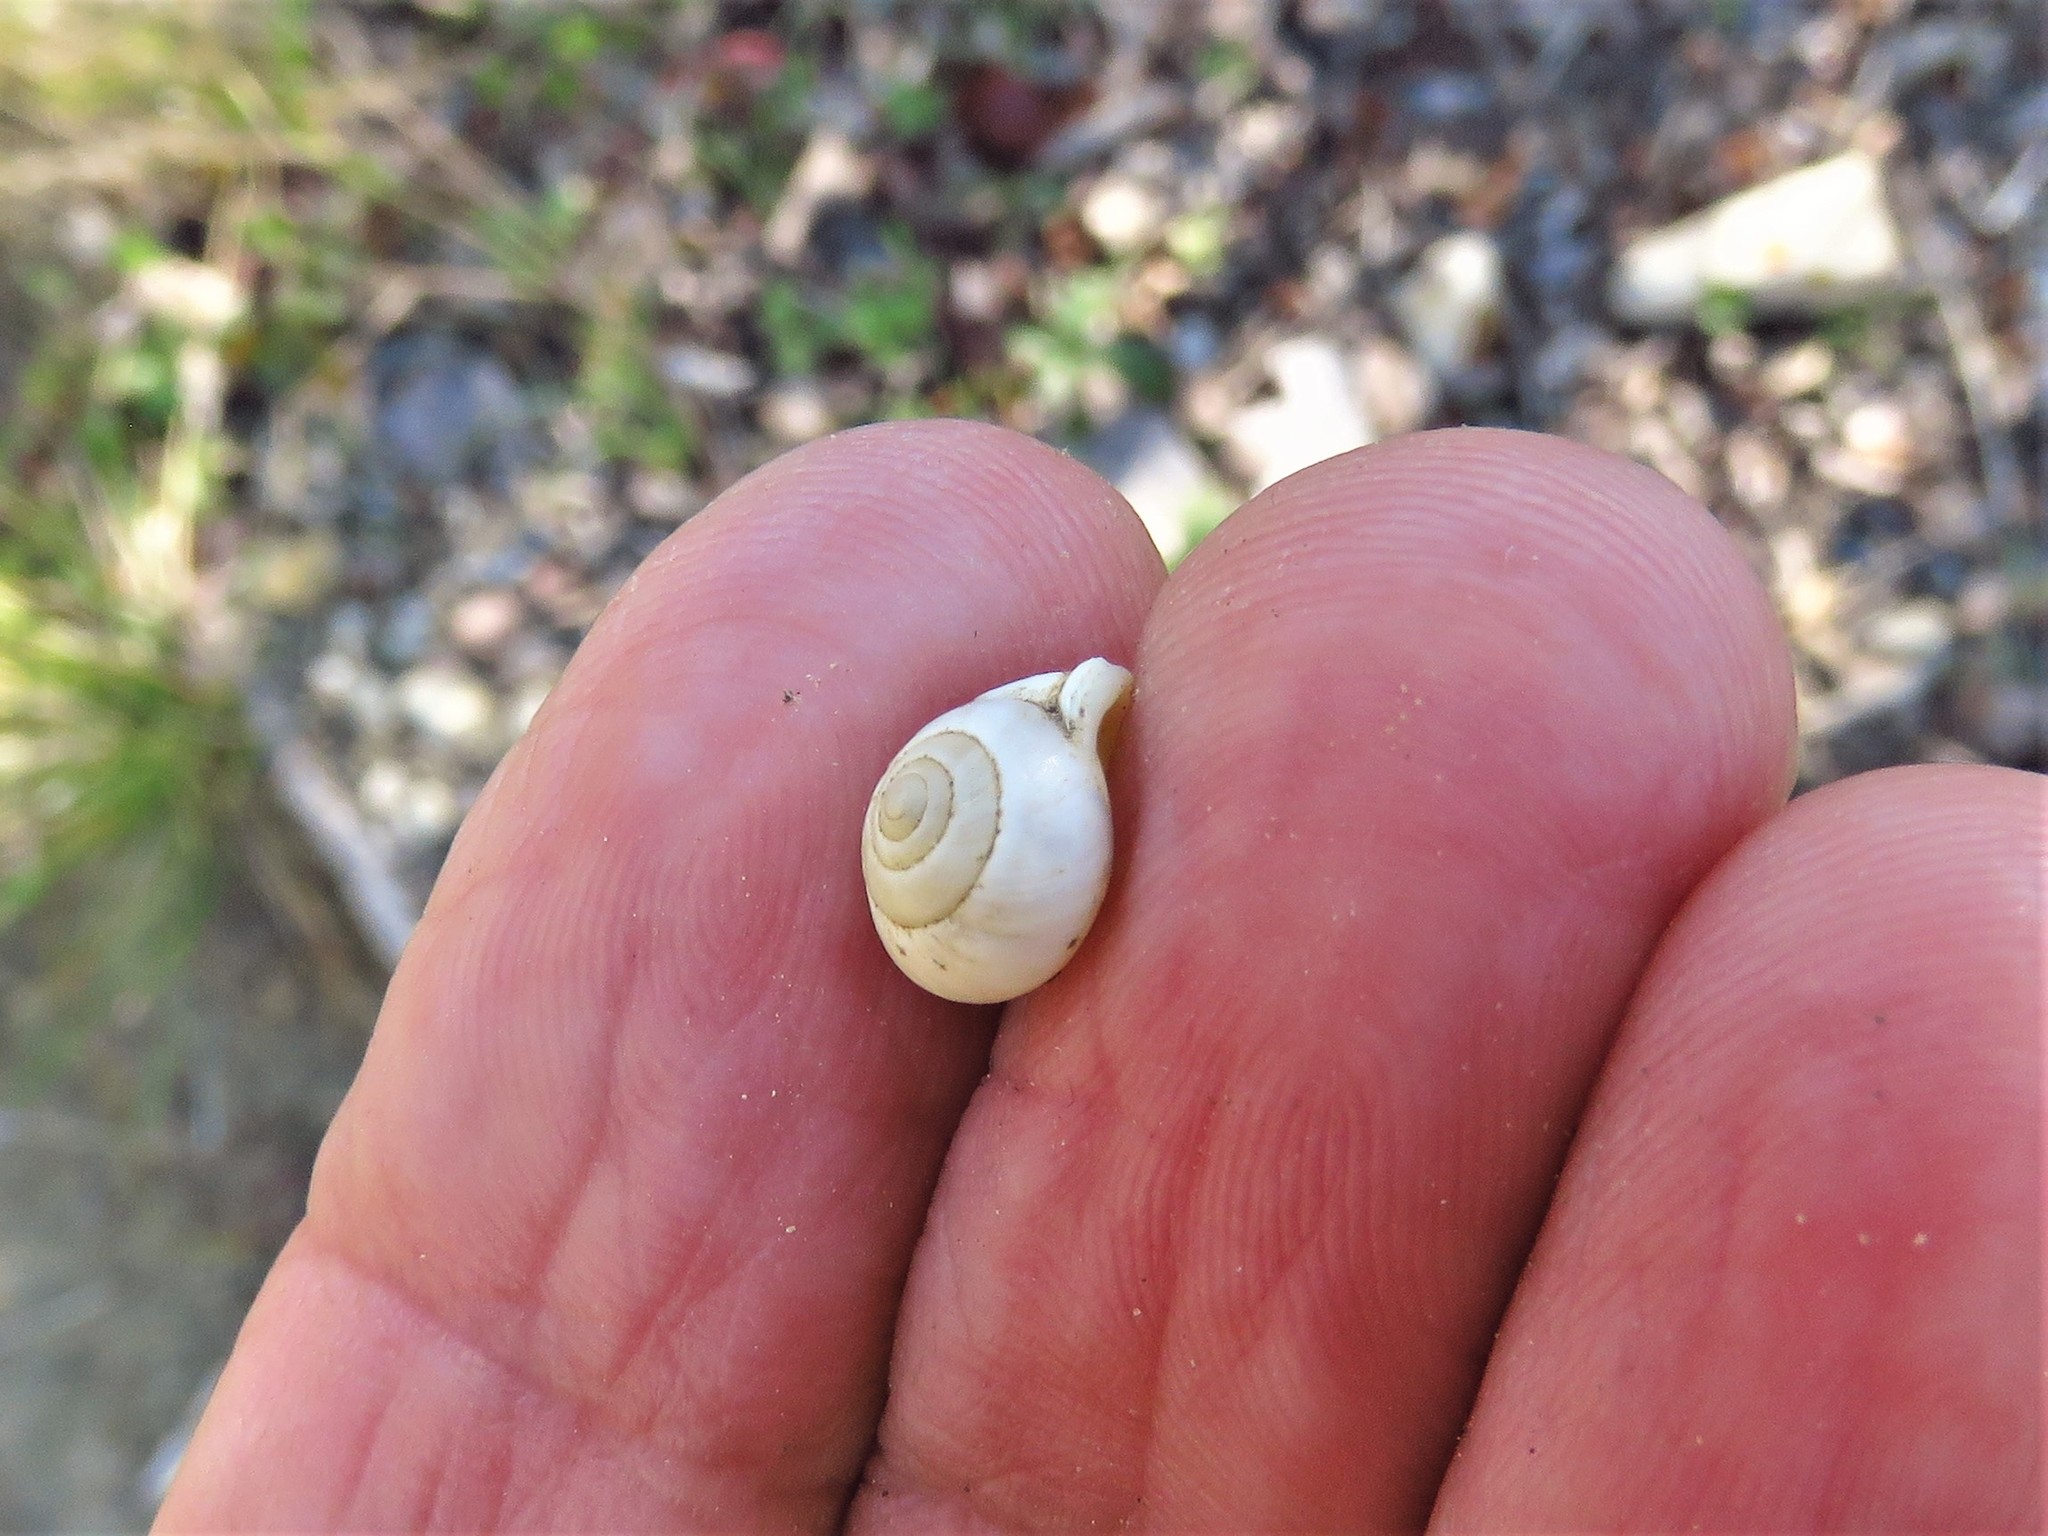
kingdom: Animalia
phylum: Mollusca
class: Gastropoda
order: Cycloneritida
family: Helicinidae
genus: Helicina
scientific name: Helicina orbiculata
